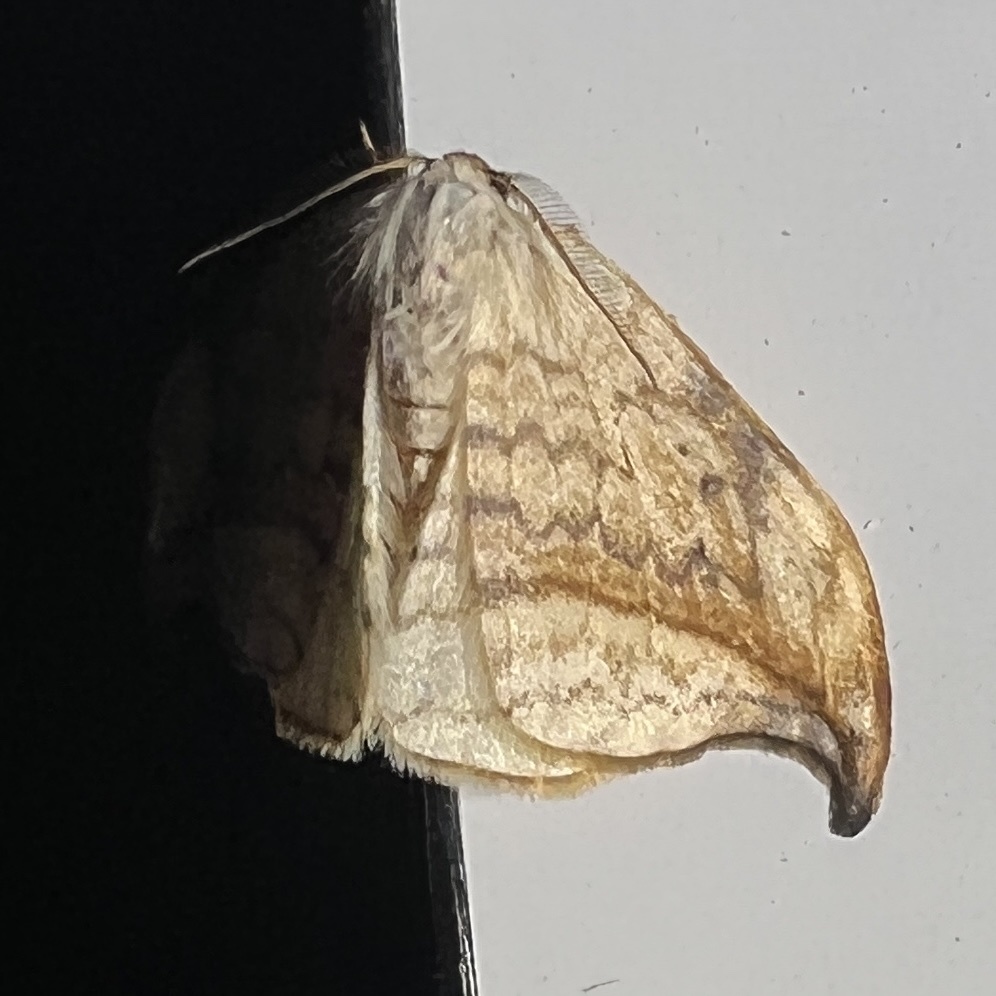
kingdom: Animalia
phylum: Arthropoda
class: Insecta
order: Lepidoptera
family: Drepanidae
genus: Drepana
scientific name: Drepana arcuata
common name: Arched hooktip moth
